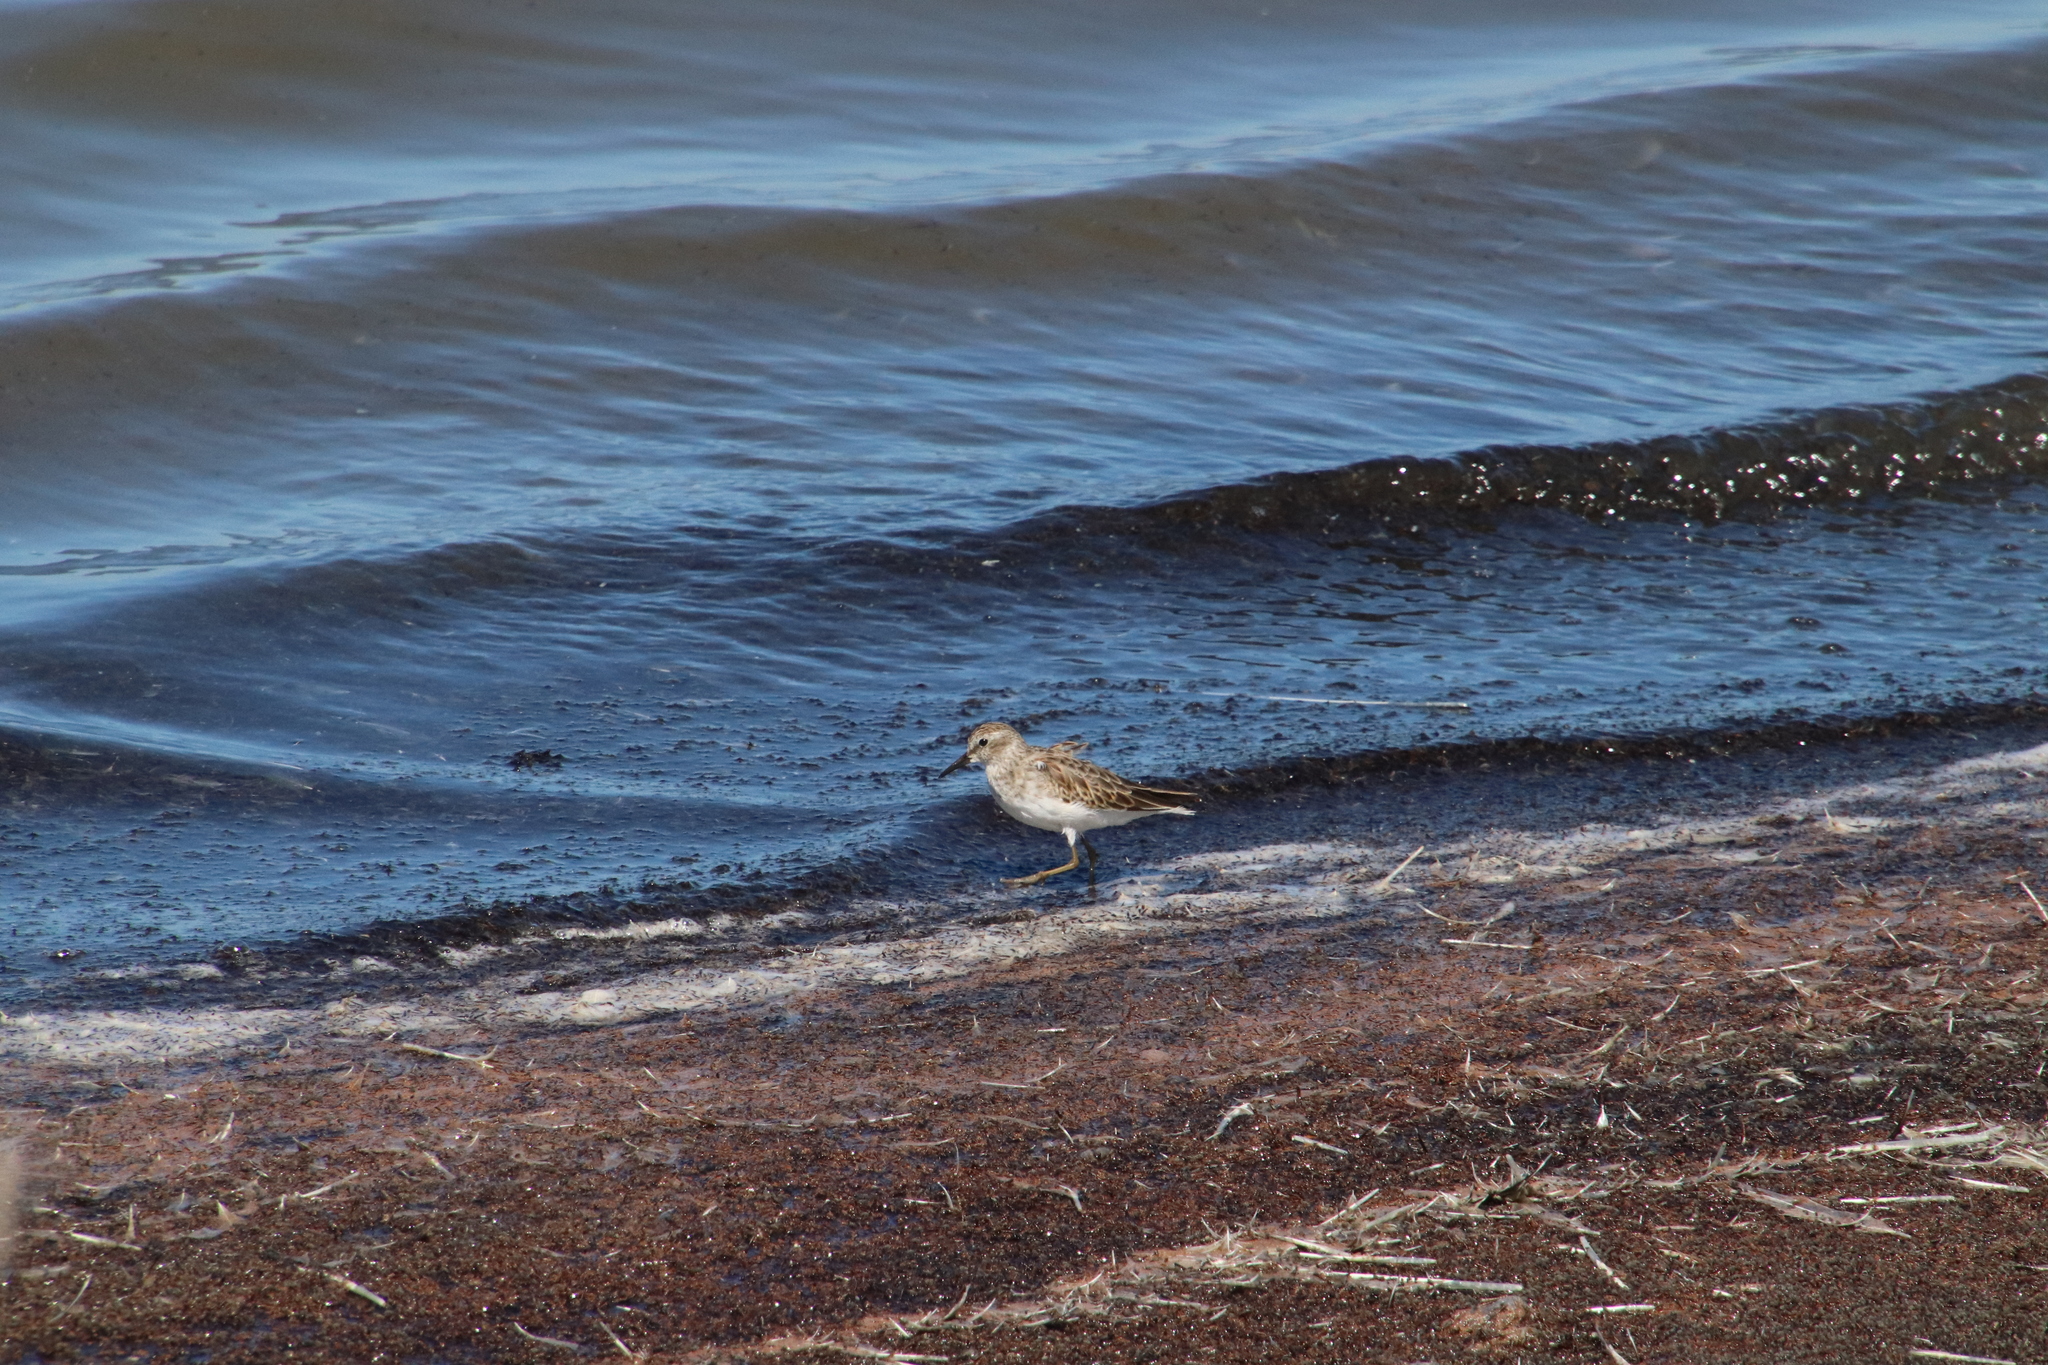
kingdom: Animalia
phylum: Chordata
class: Aves
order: Charadriiformes
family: Scolopacidae
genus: Calidris
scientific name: Calidris minutilla
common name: Least sandpiper
